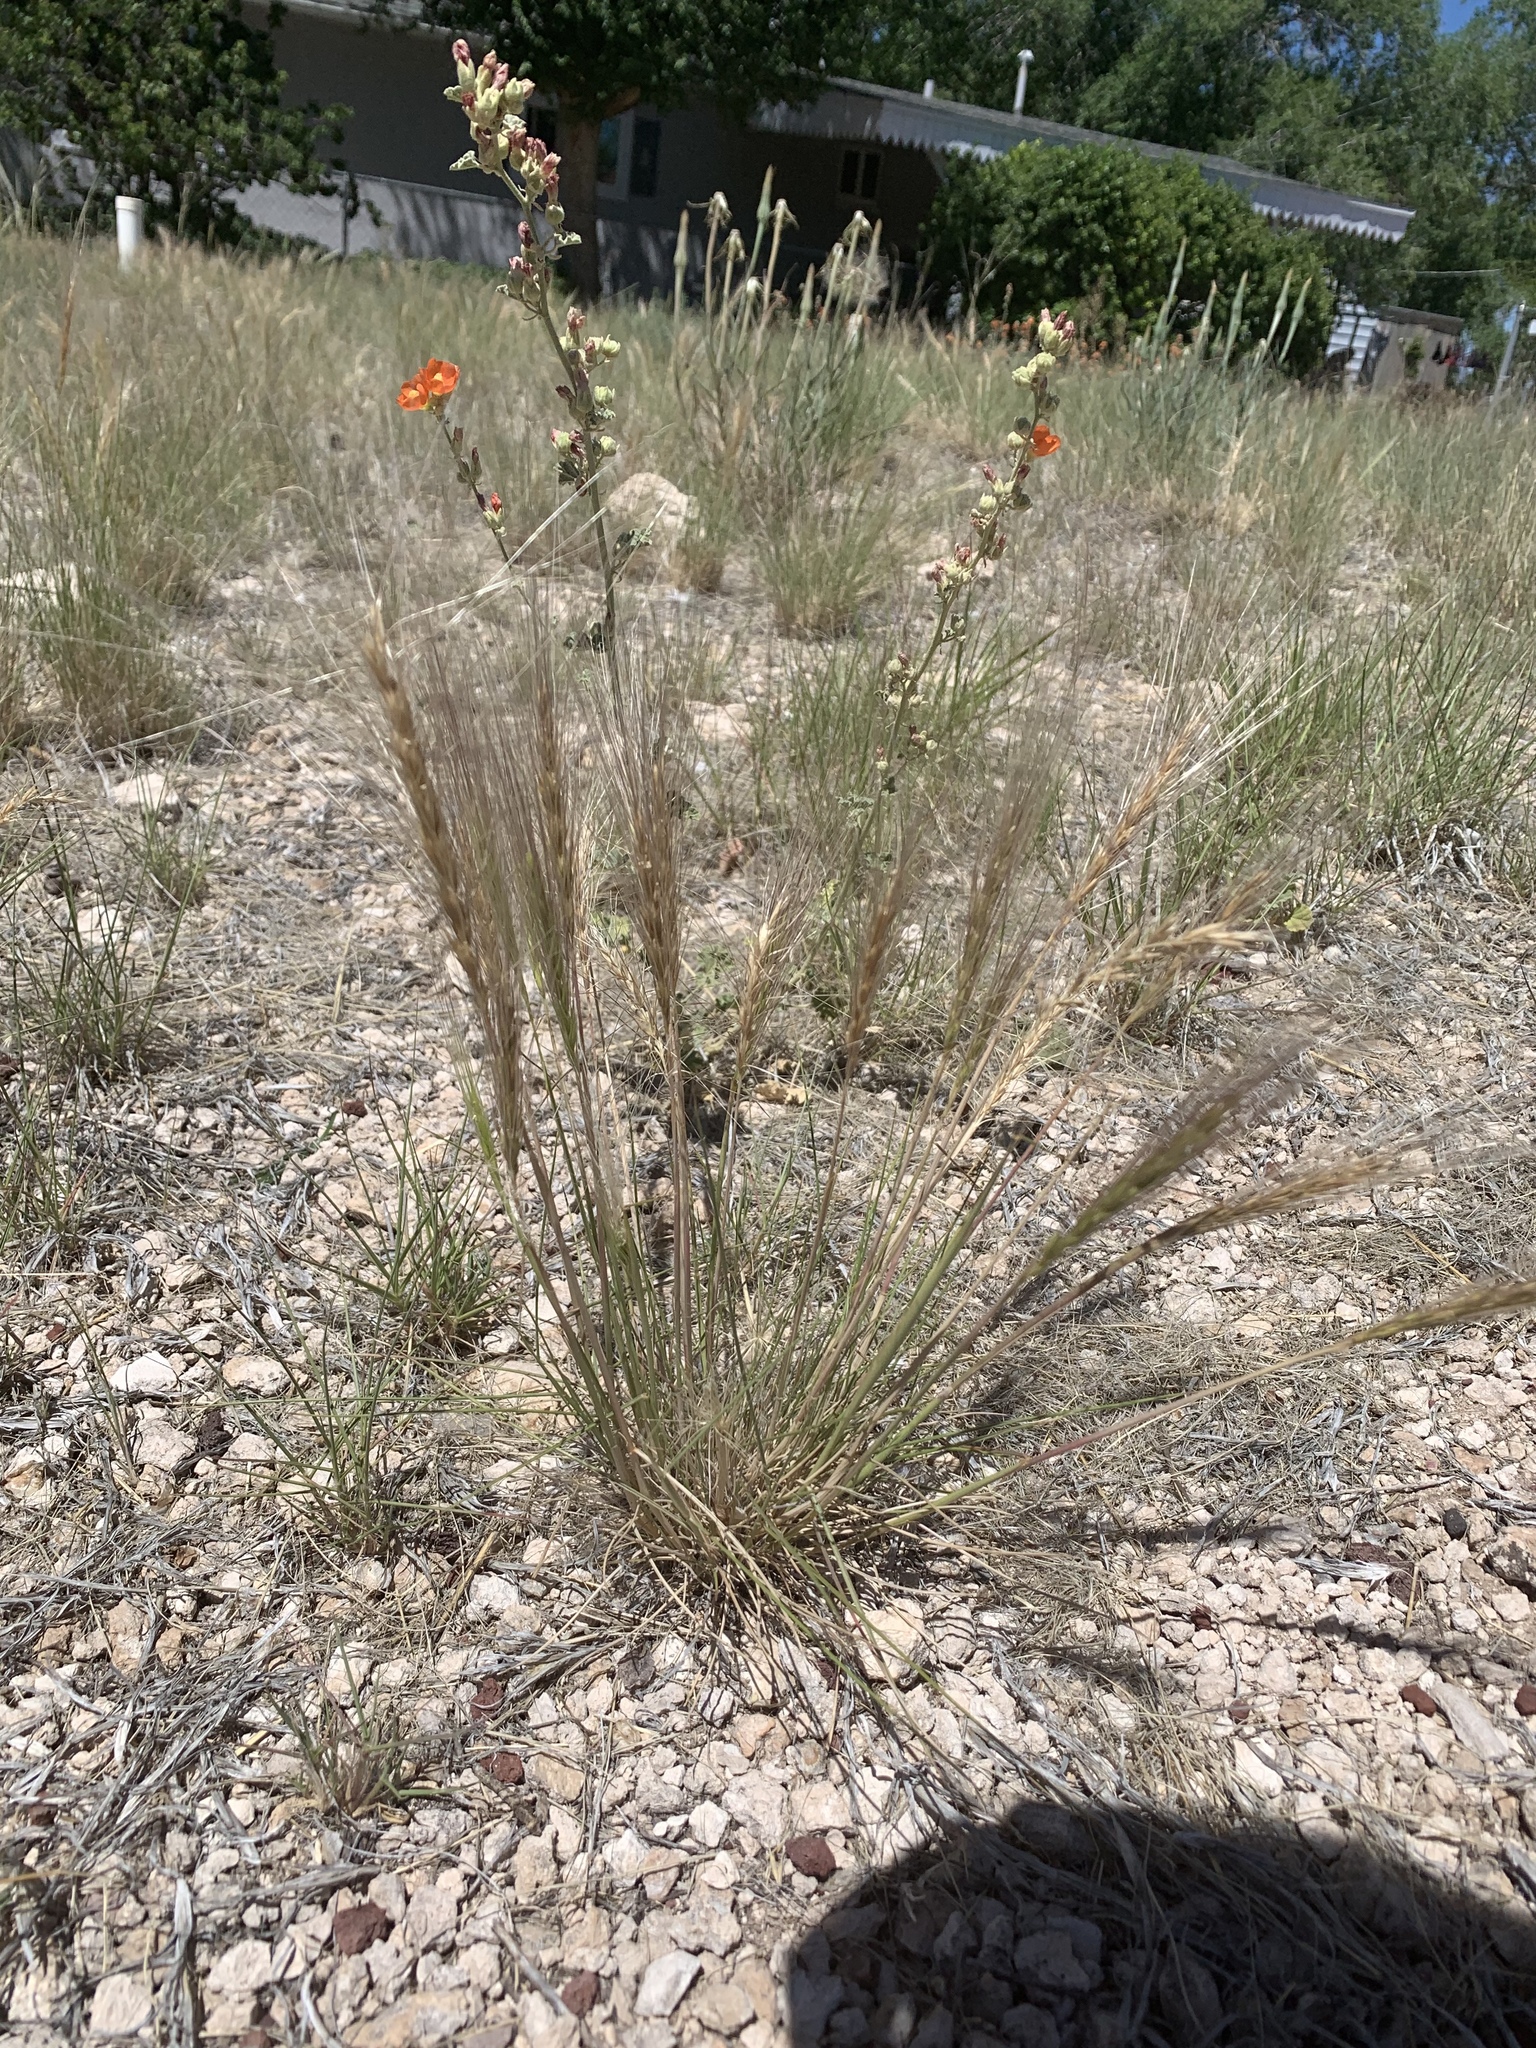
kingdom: Plantae
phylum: Tracheophyta
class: Liliopsida
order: Poales
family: Poaceae
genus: Elymus
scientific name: Elymus elymoides
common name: Bottlebrush squirreltail
